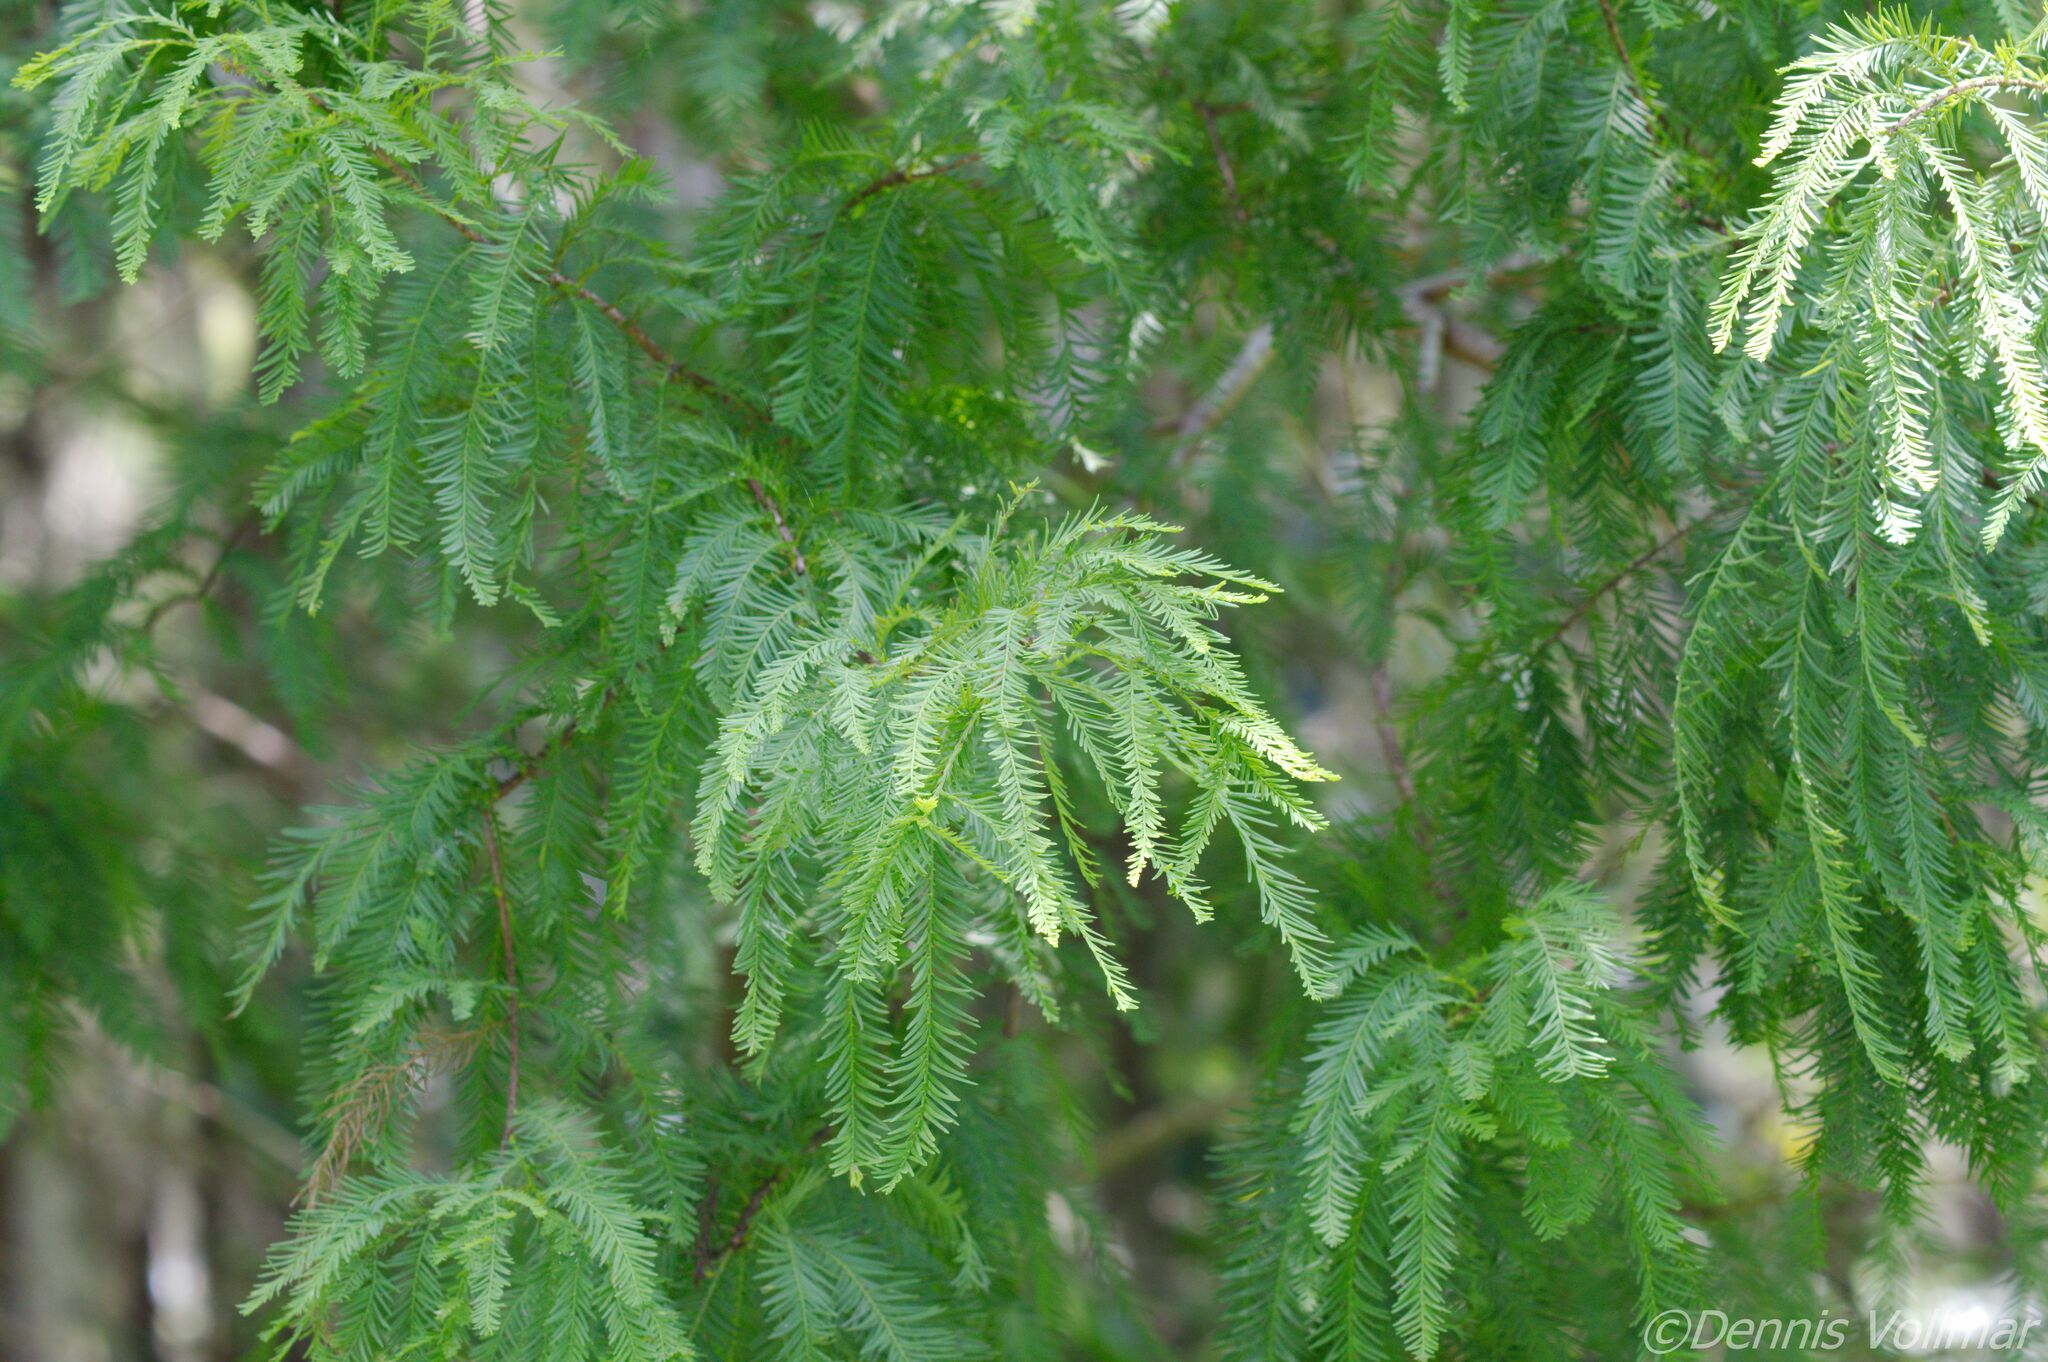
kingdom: Plantae
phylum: Tracheophyta
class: Pinopsida
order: Pinales
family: Cupressaceae
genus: Taxodium
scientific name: Taxodium distichum
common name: Bald cypress
